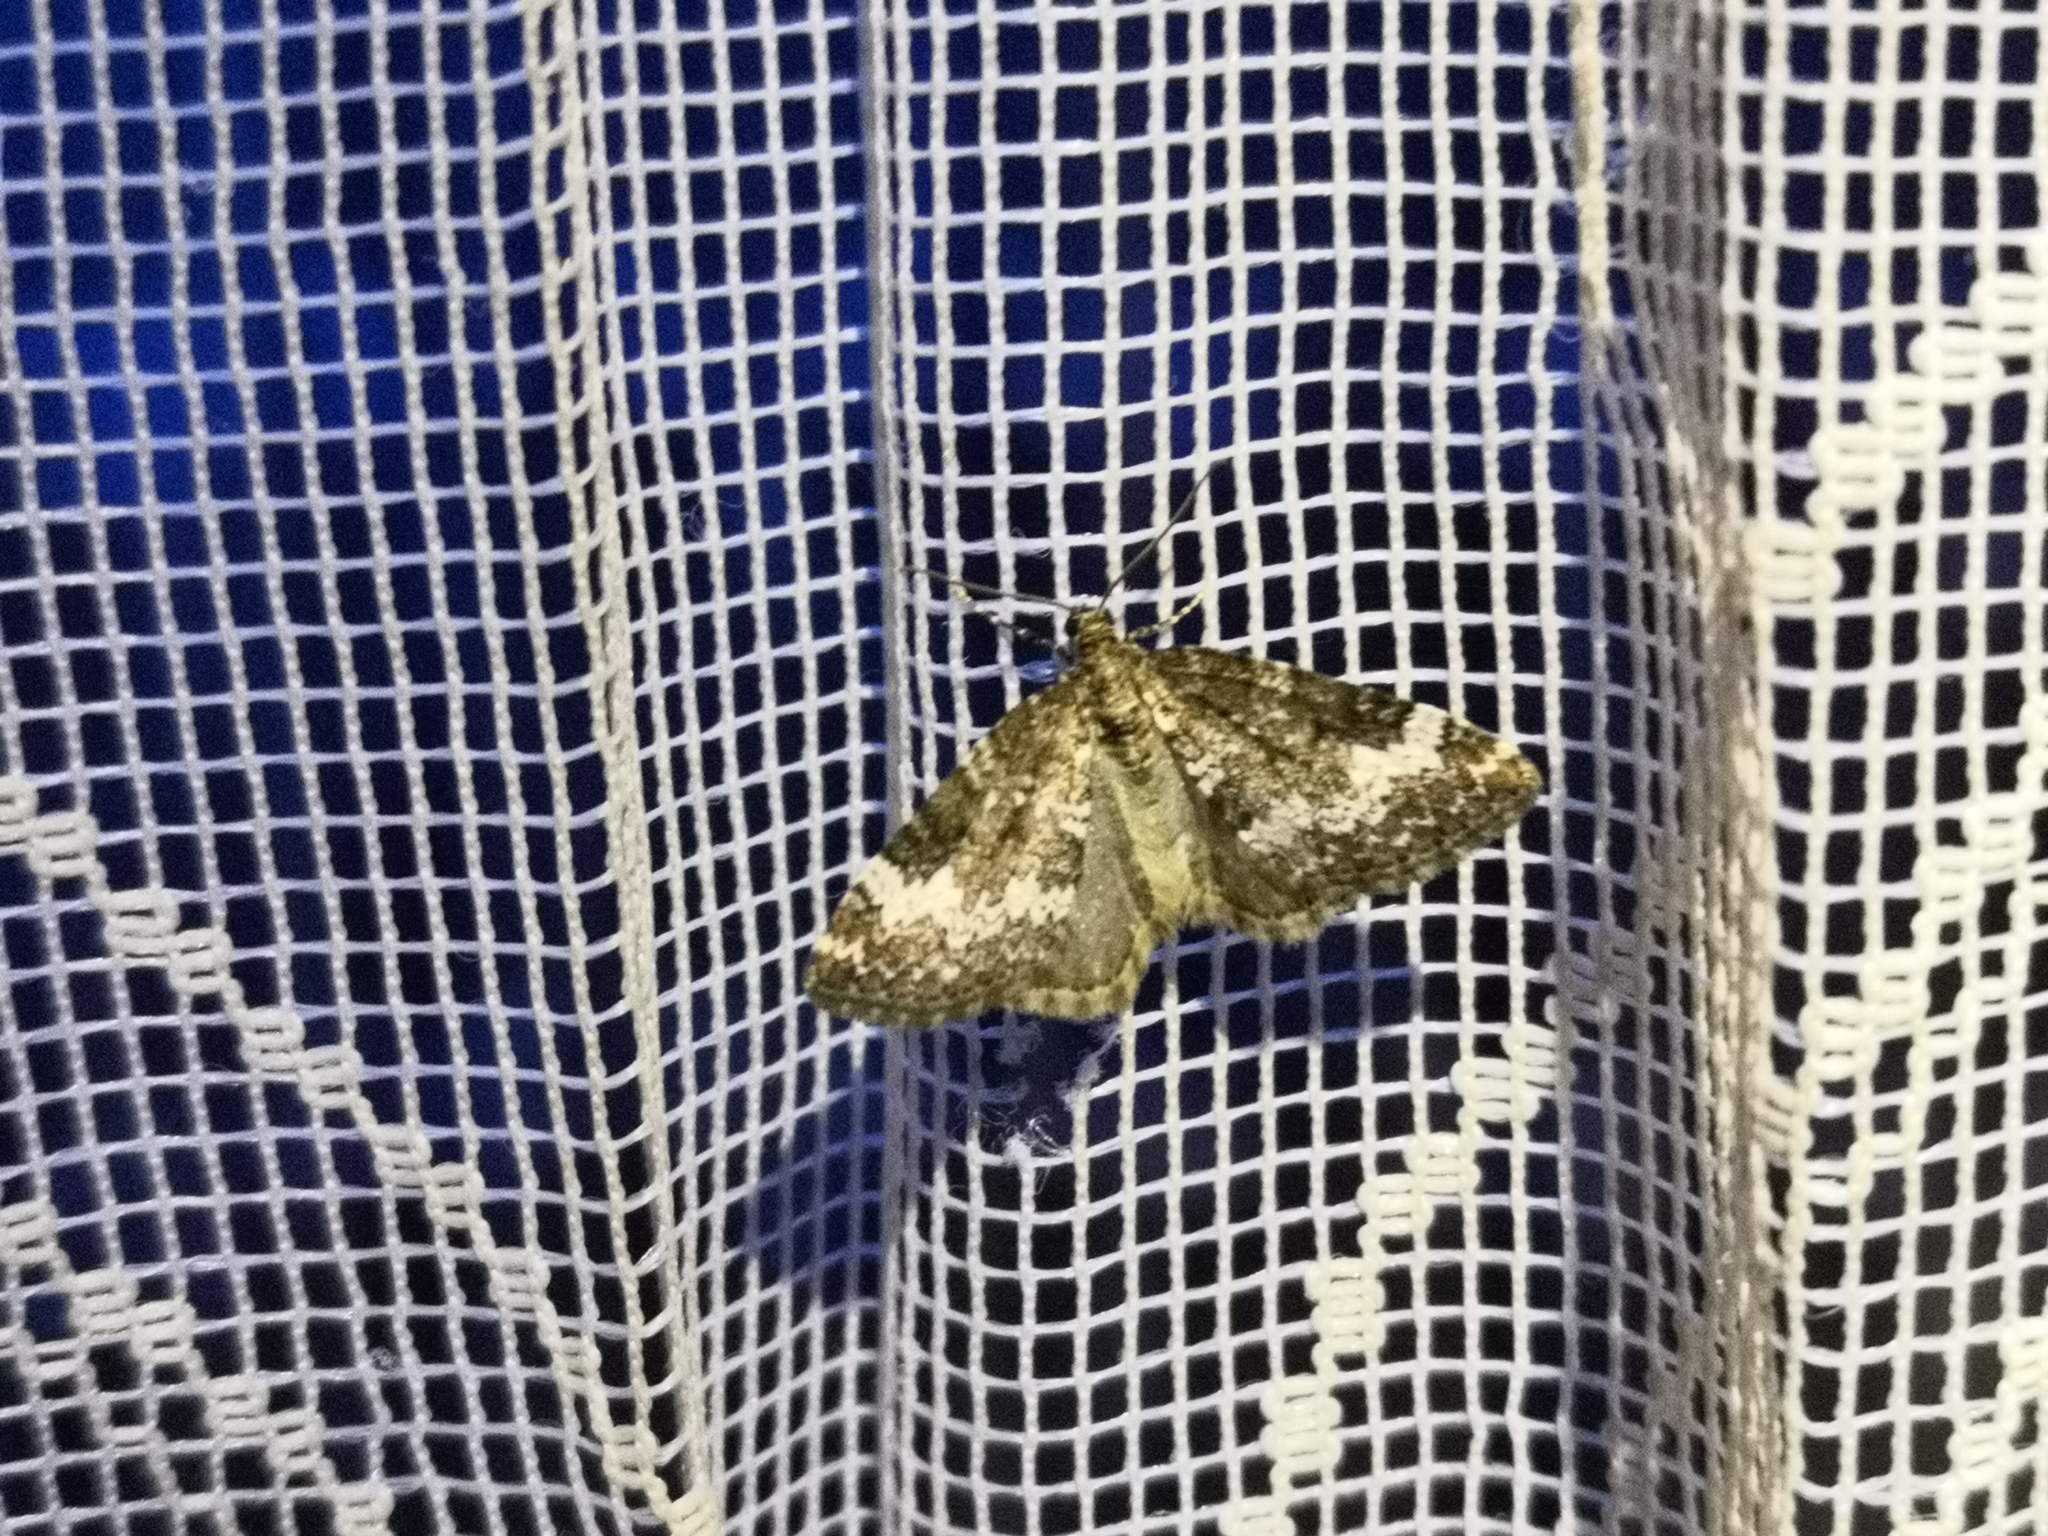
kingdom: Animalia
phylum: Arthropoda
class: Insecta
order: Lepidoptera
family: Geometridae
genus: Perizoma
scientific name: Perizoma alchemillata
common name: Small rivulet
